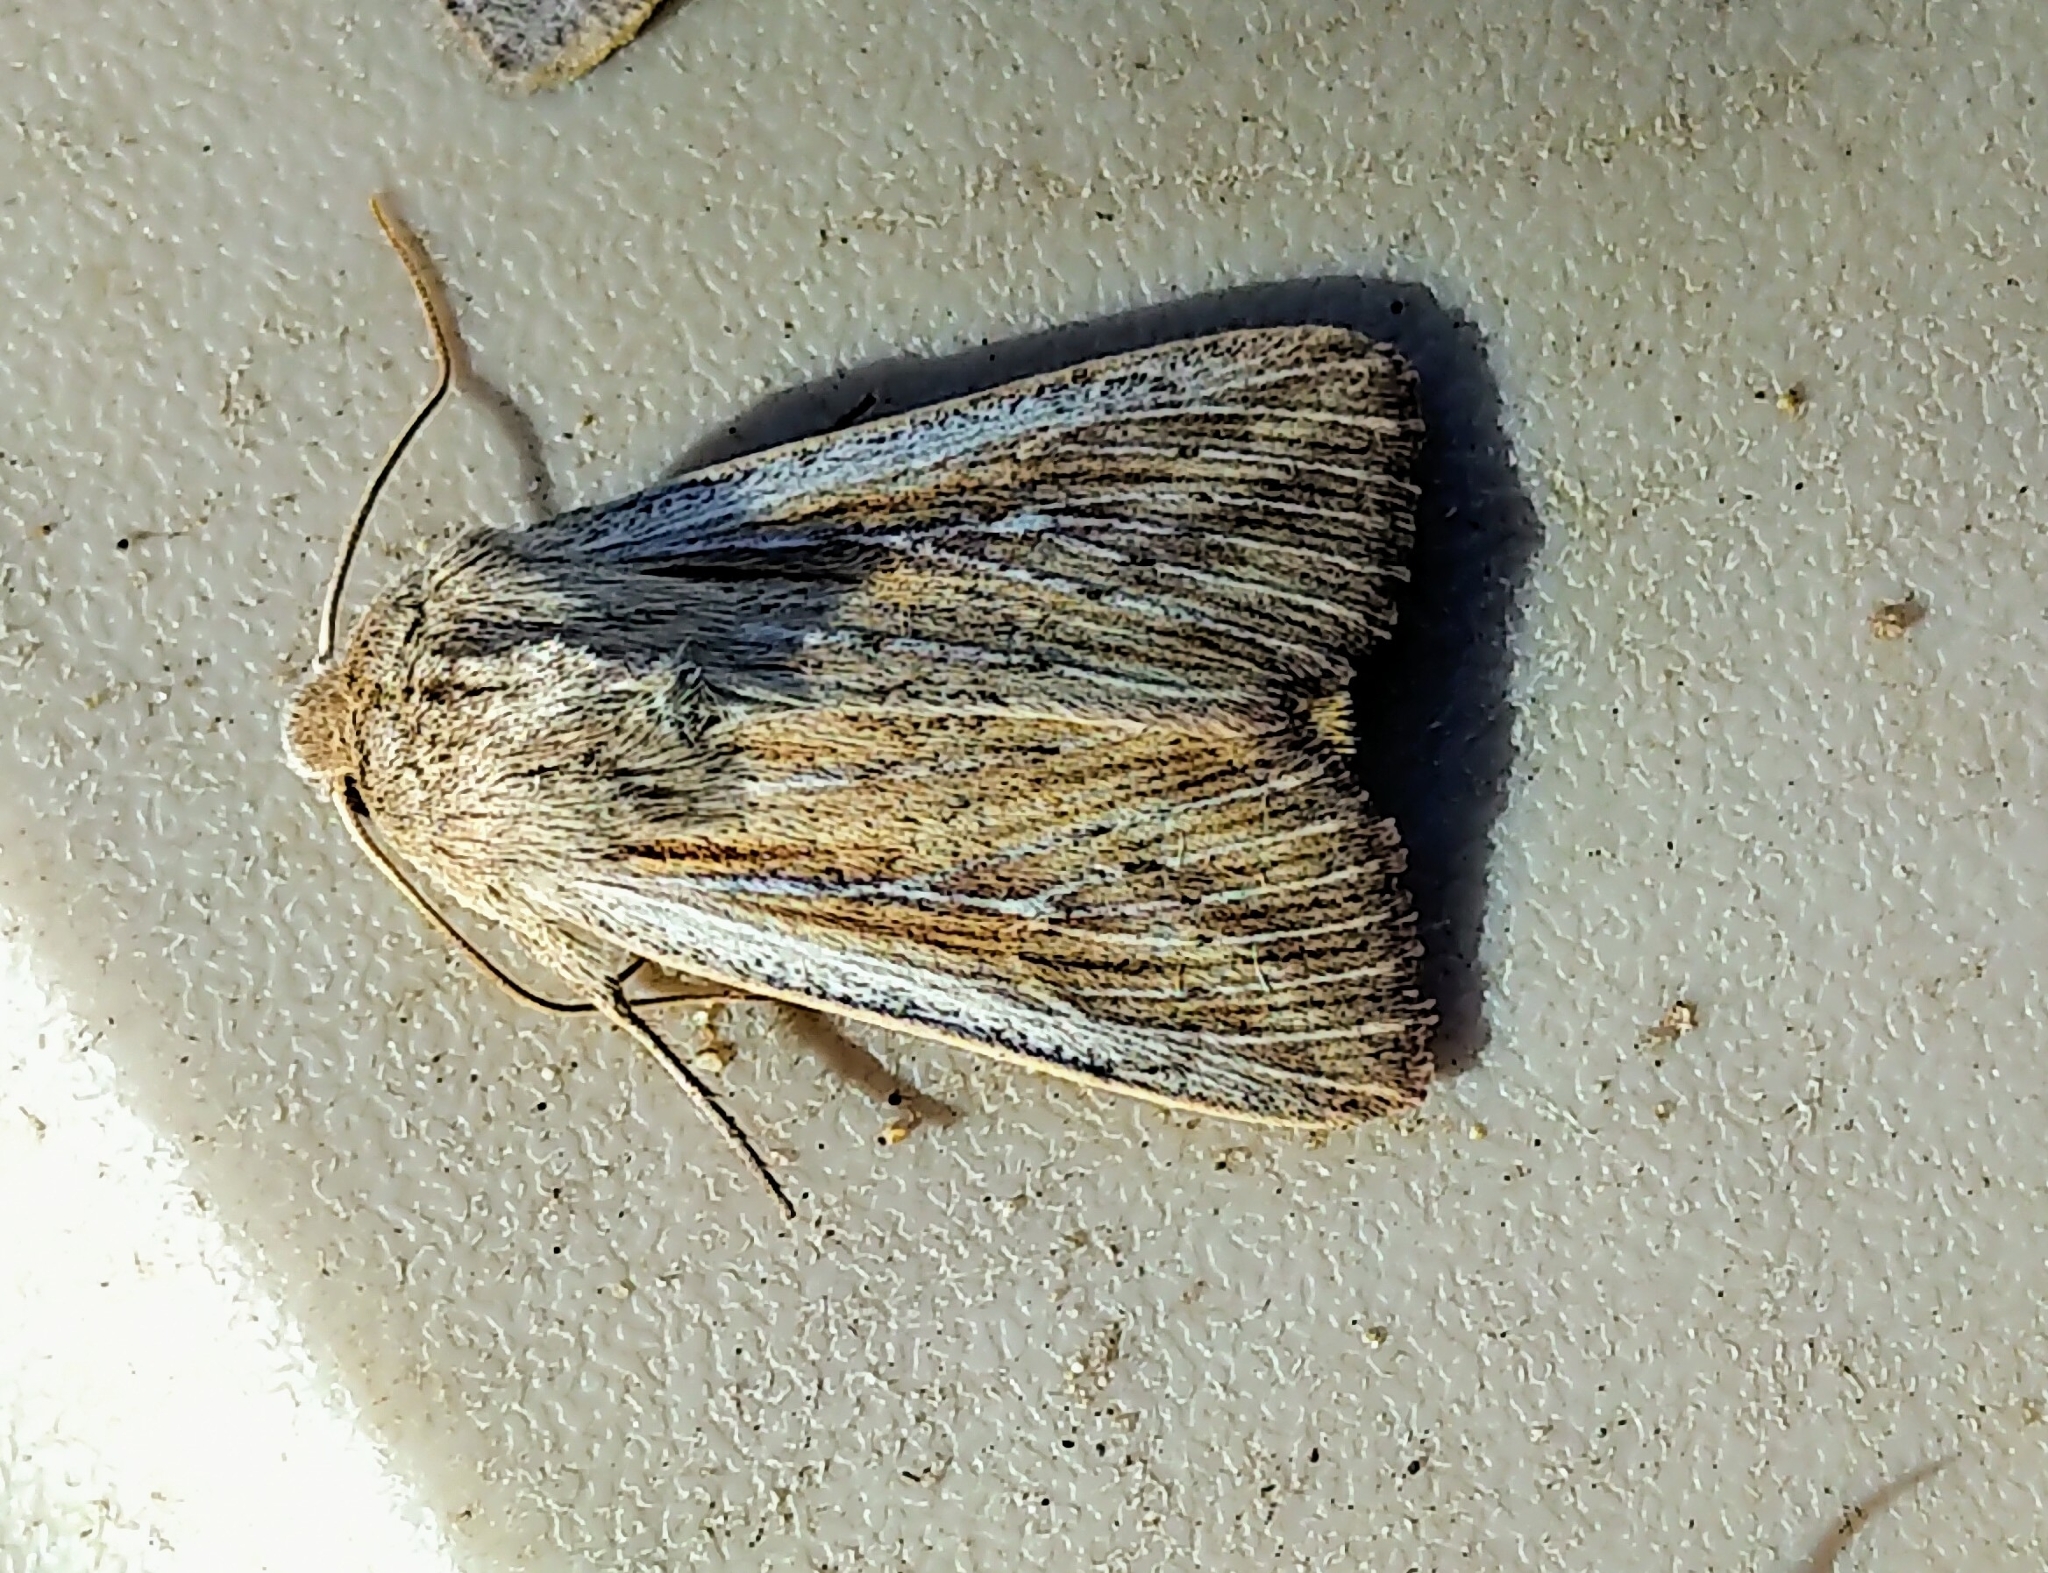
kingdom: Animalia
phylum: Arthropoda
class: Insecta
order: Lepidoptera
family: Noctuidae
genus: Leucania
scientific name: Leucania commoides
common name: Two-lined wainscot
